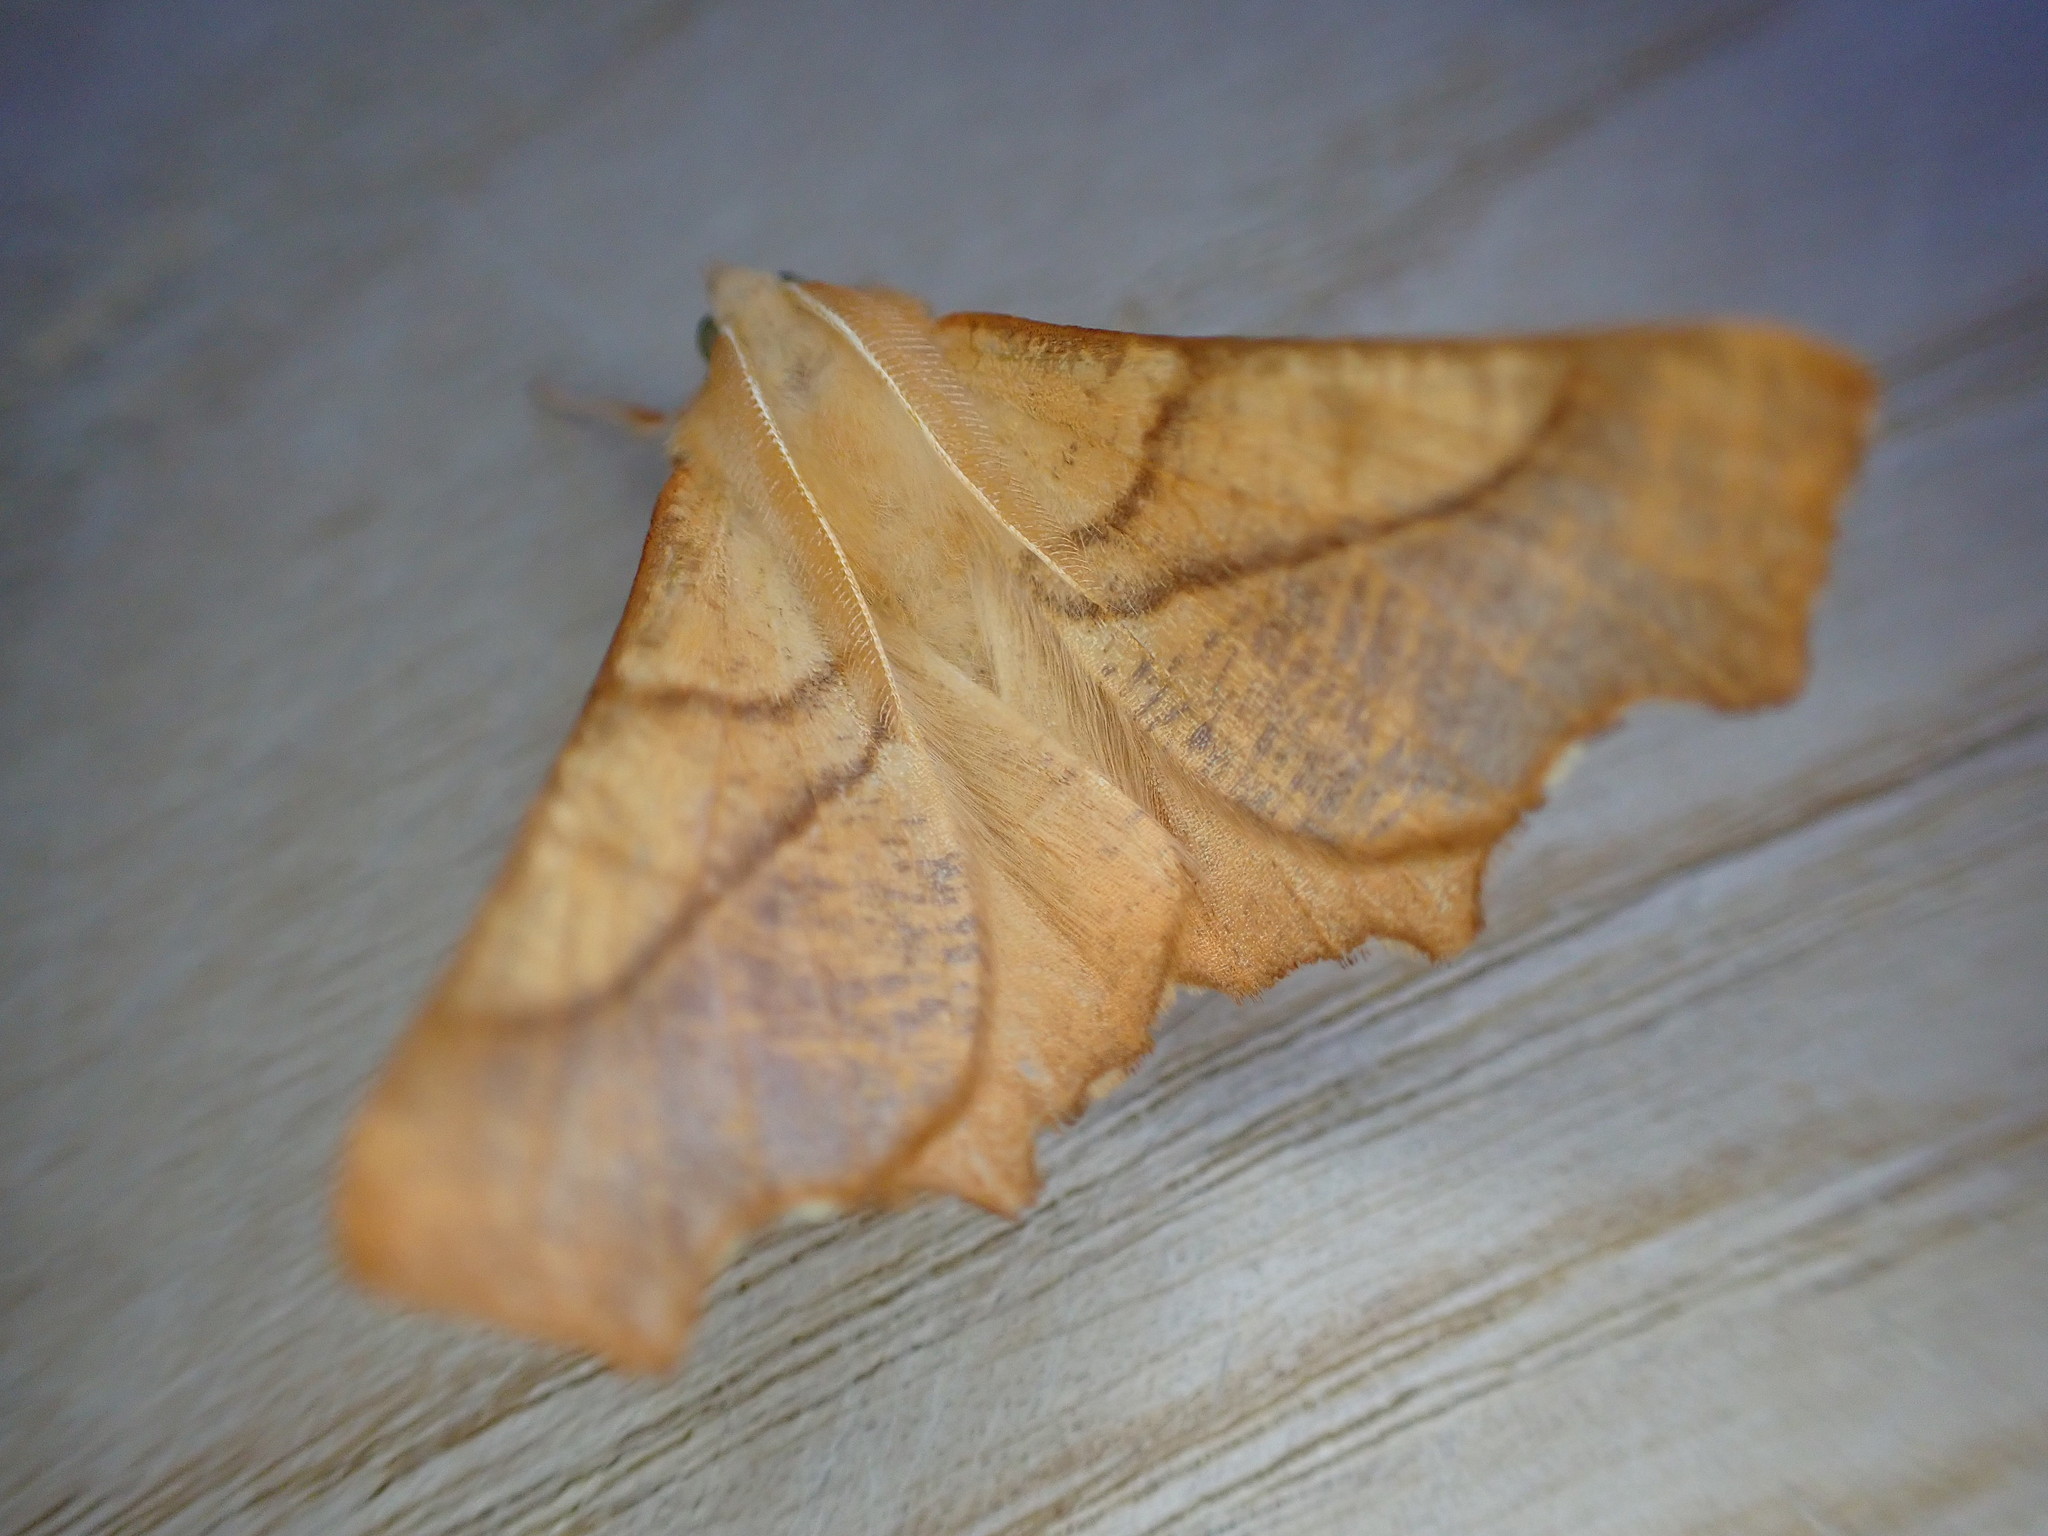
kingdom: Animalia
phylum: Arthropoda
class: Insecta
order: Lepidoptera
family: Geometridae
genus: Ennomos
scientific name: Ennomos fuscantaria
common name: Dusky thorn
